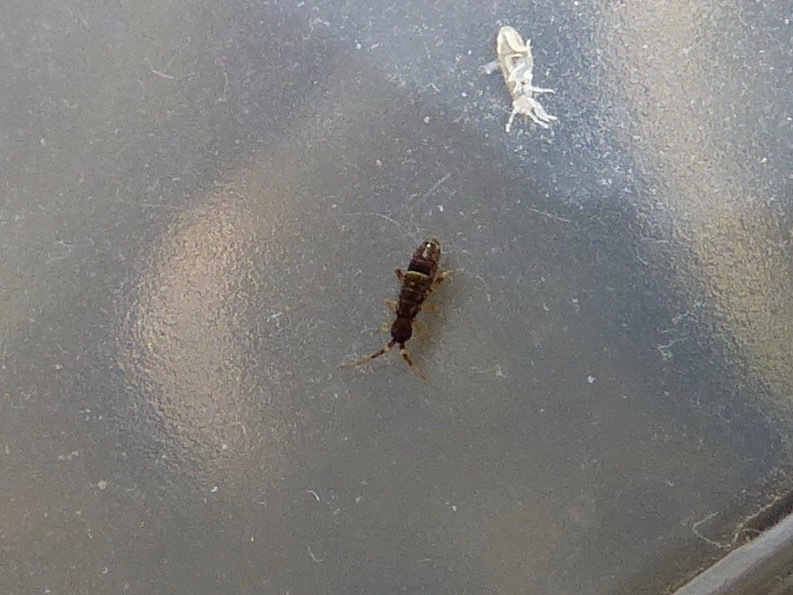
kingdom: Animalia
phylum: Arthropoda
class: Collembola
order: Entomobryomorpha
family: Orchesellidae
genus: Orchesella
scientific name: Orchesella cincta
